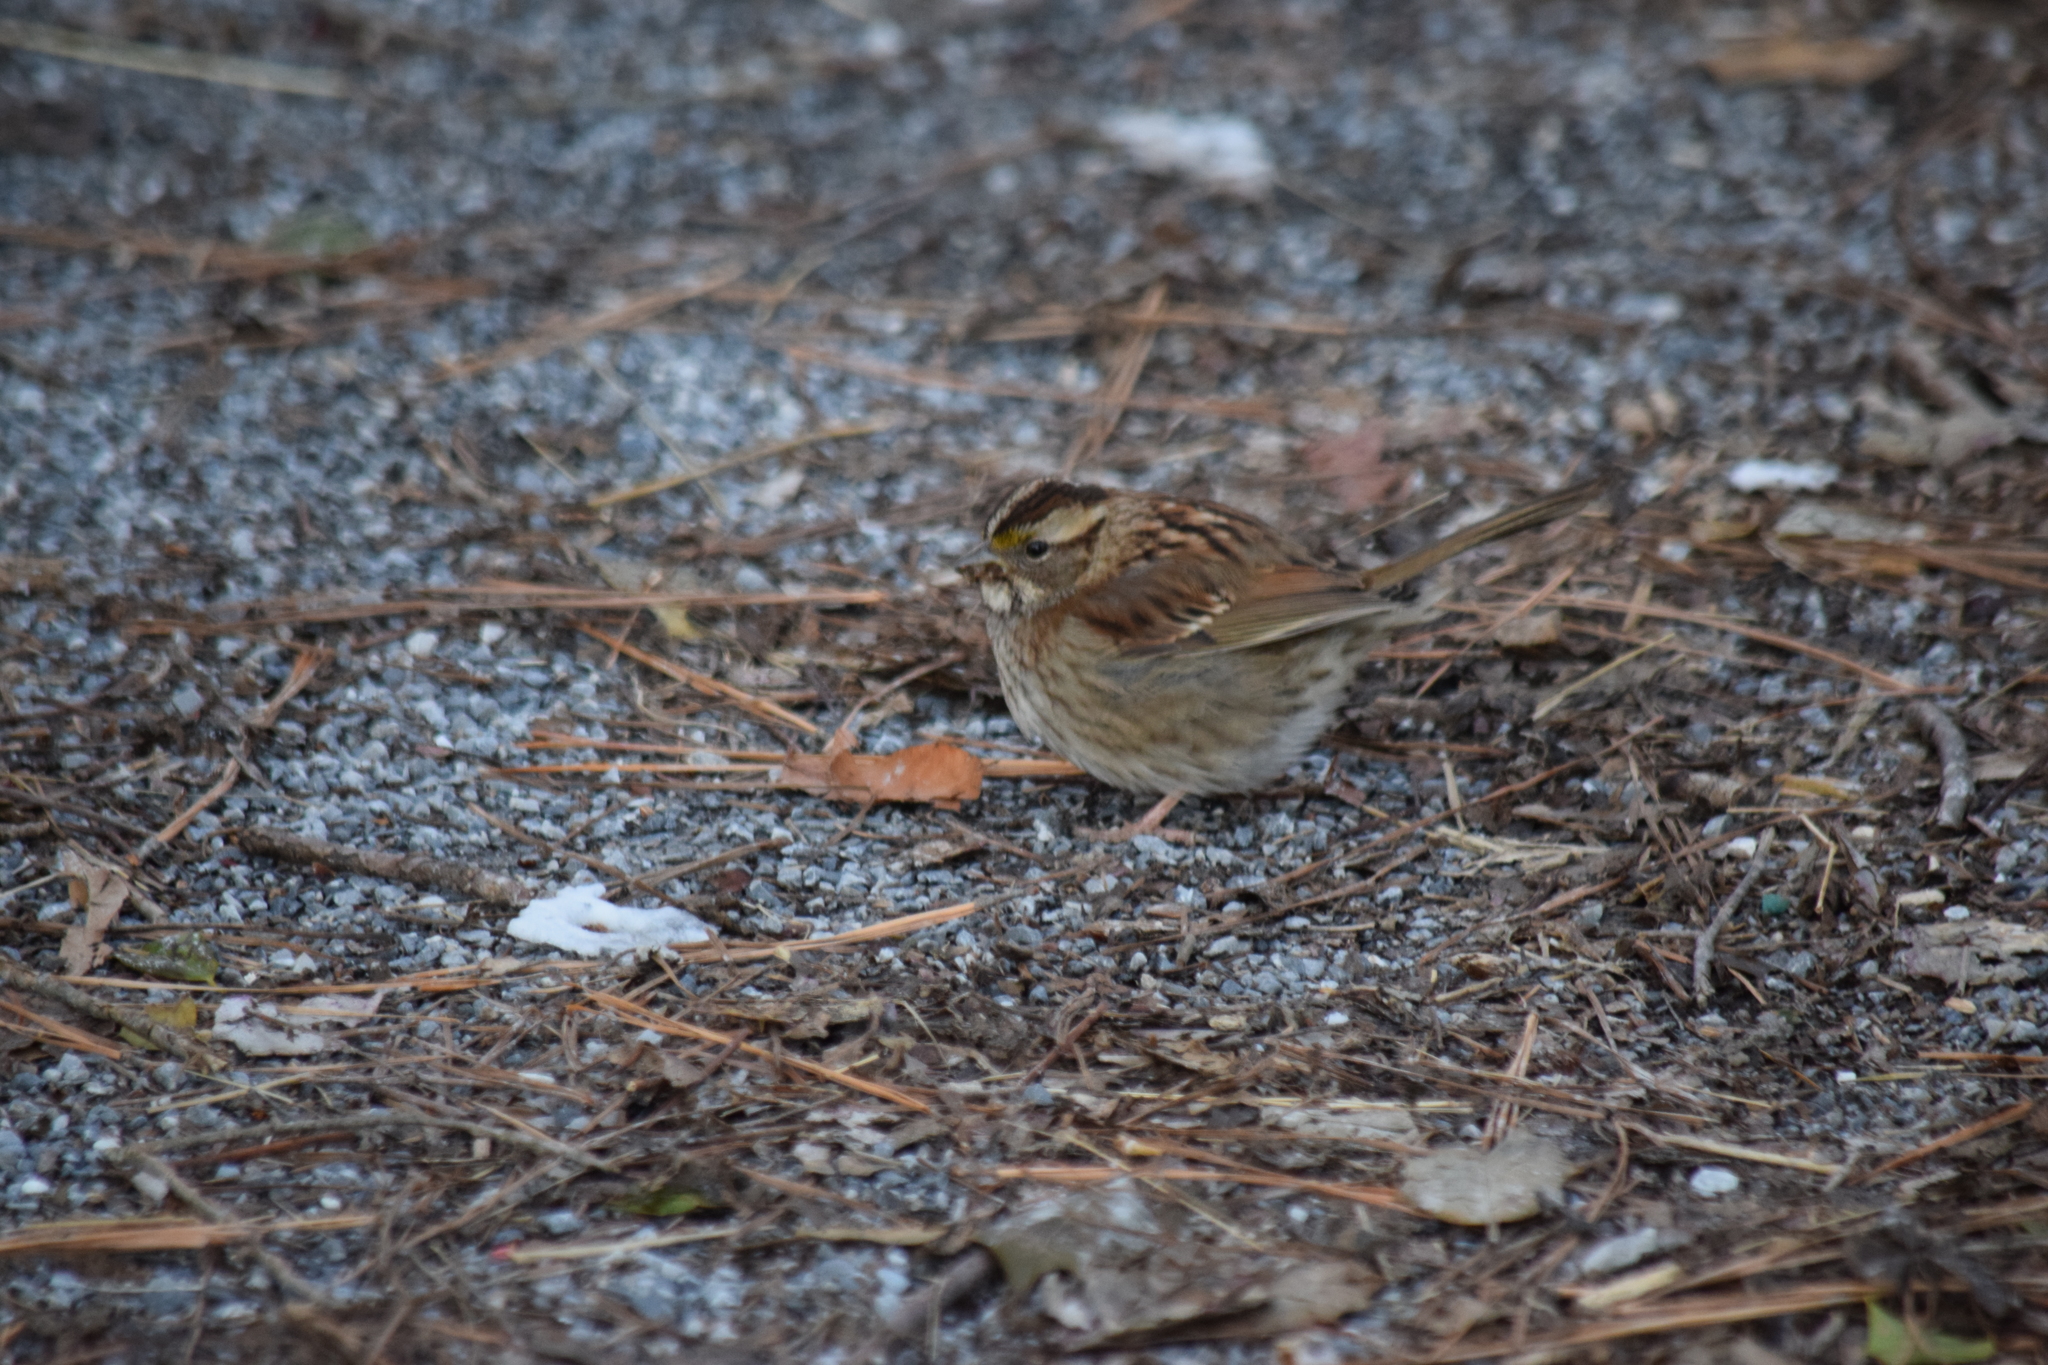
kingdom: Animalia
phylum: Chordata
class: Aves
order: Passeriformes
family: Passerellidae
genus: Zonotrichia
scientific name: Zonotrichia albicollis
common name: White-throated sparrow
